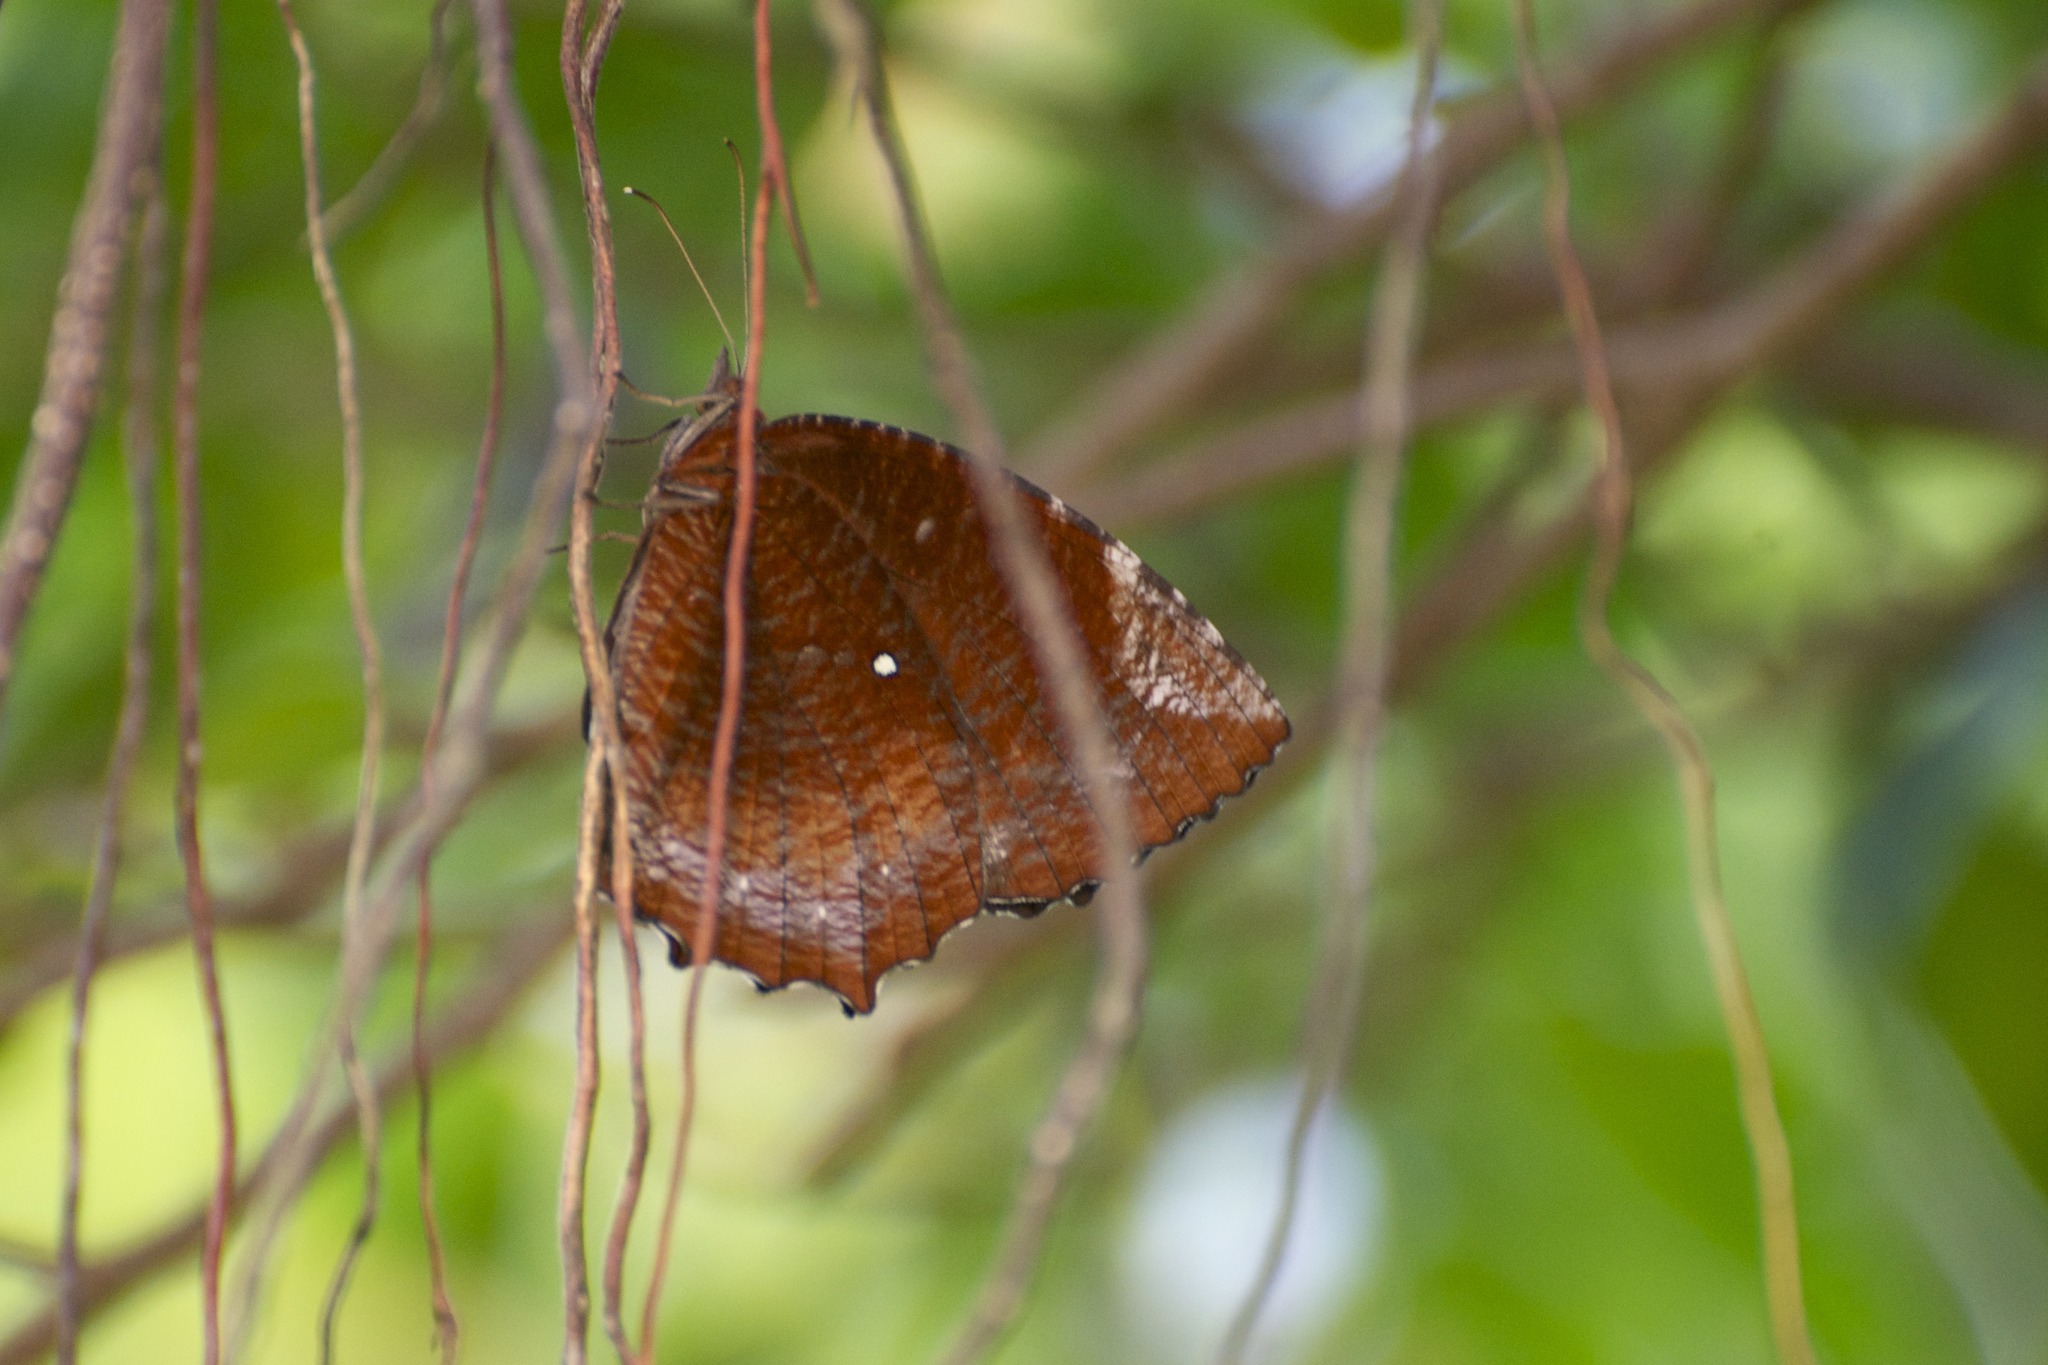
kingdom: Animalia
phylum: Arthropoda
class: Insecta
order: Lepidoptera
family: Nymphalidae
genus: Elymnias
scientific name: Elymnias hypermnestra
